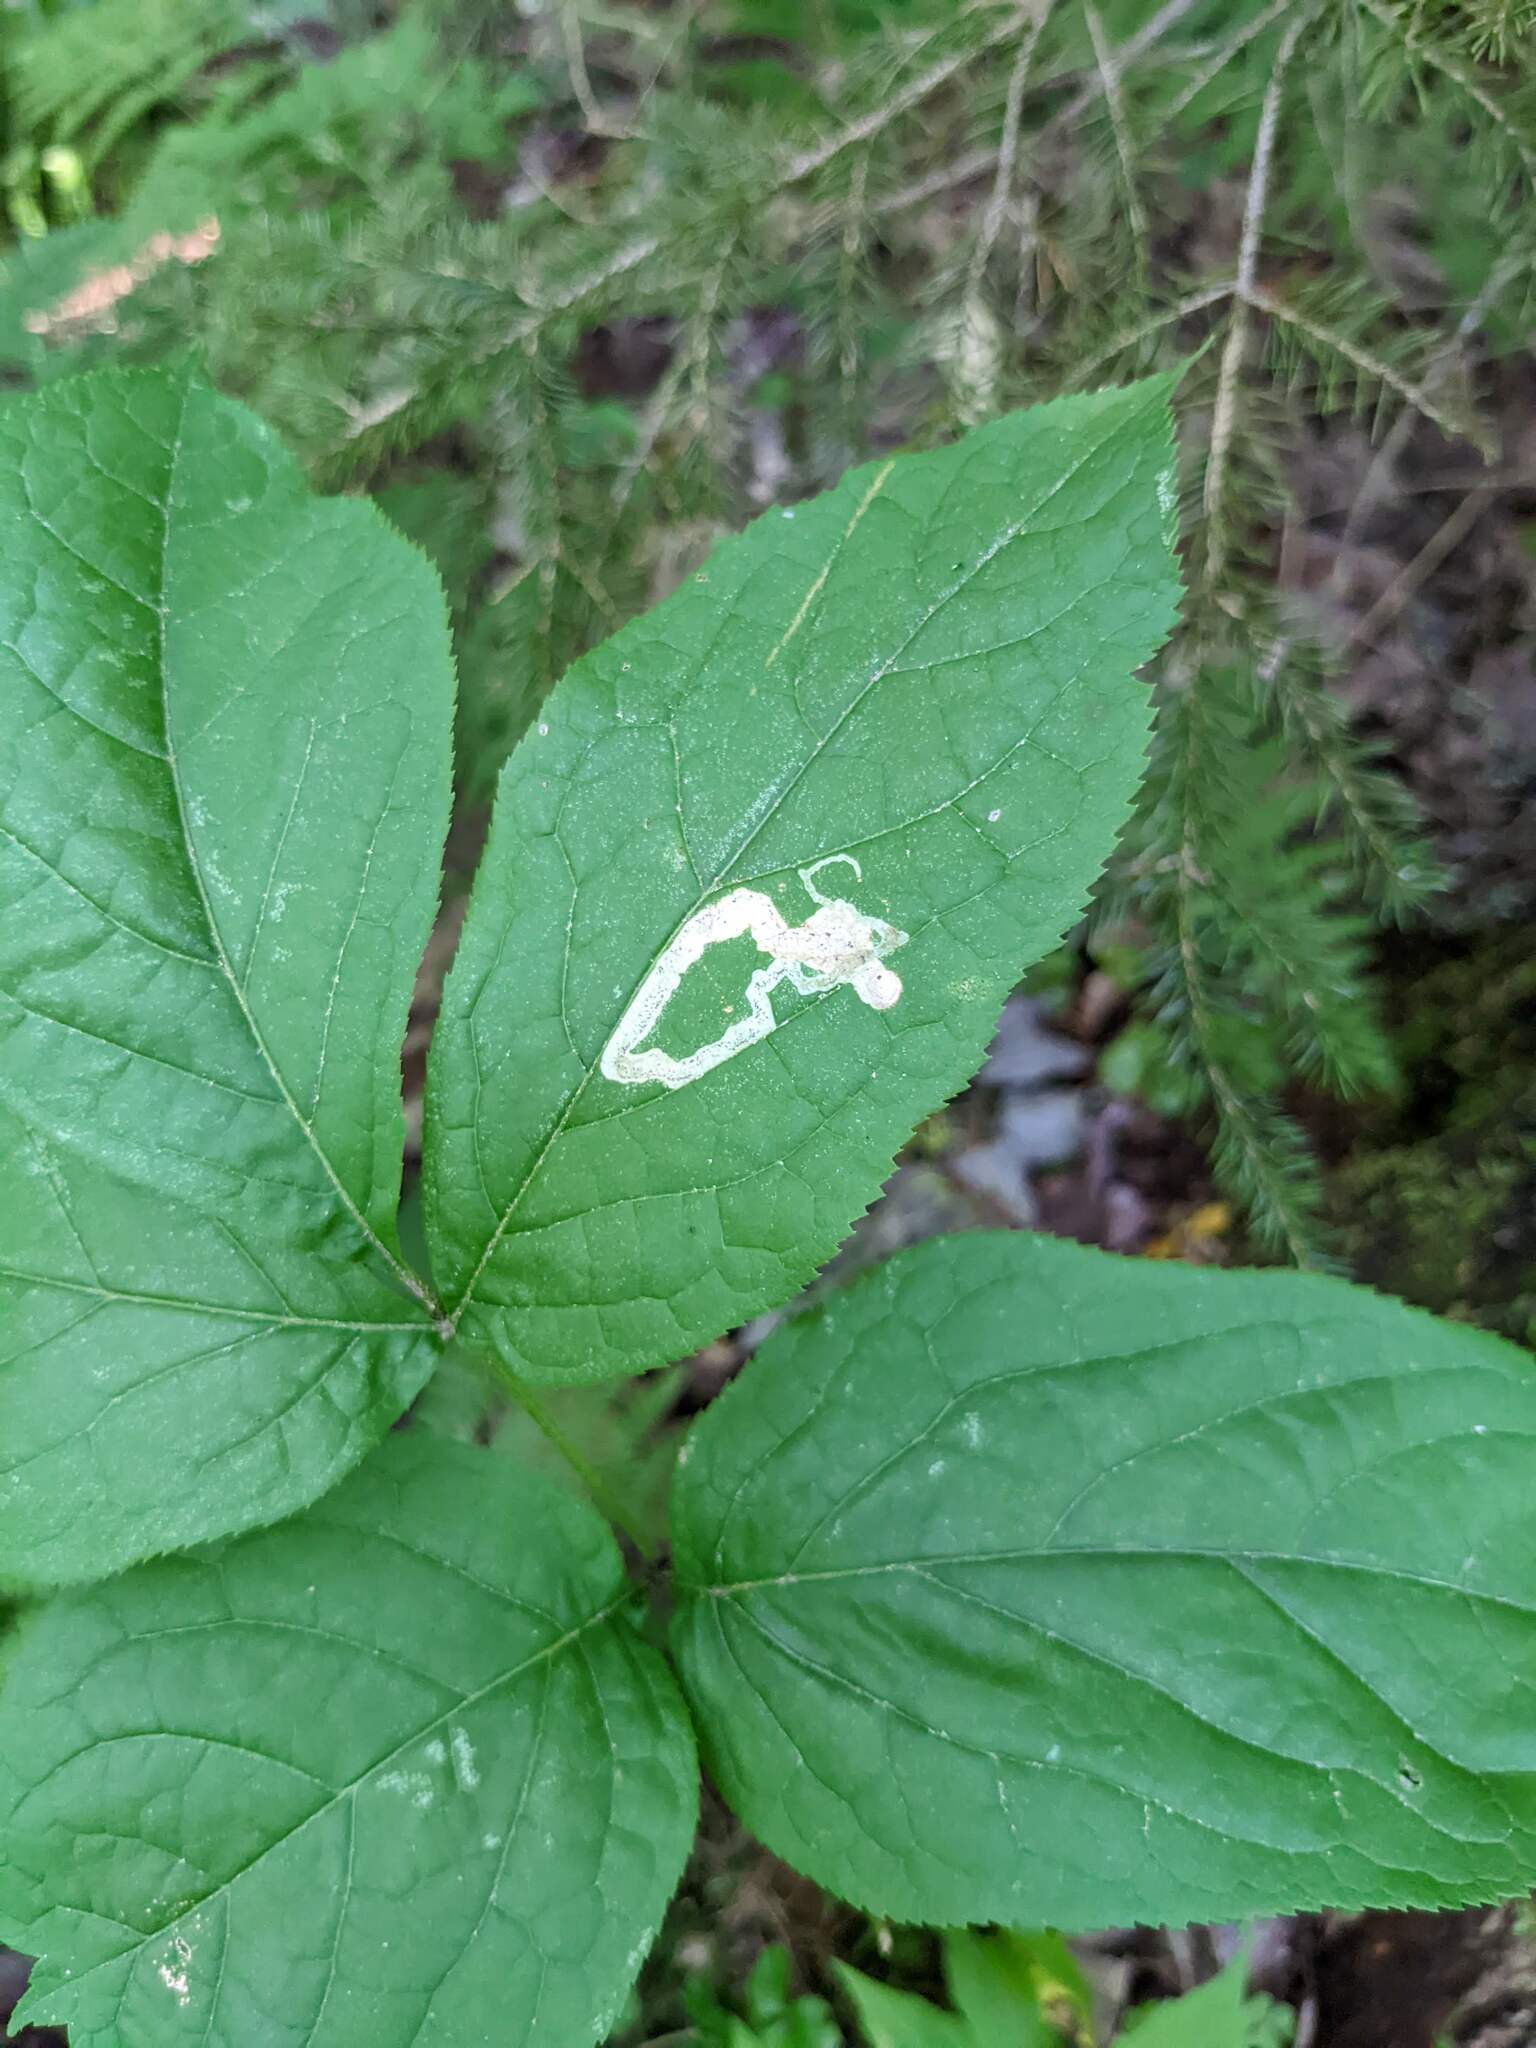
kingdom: Animalia
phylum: Arthropoda
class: Insecta
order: Diptera
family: Agromyzidae
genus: Phytomyza
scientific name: Phytomyza aralivora
